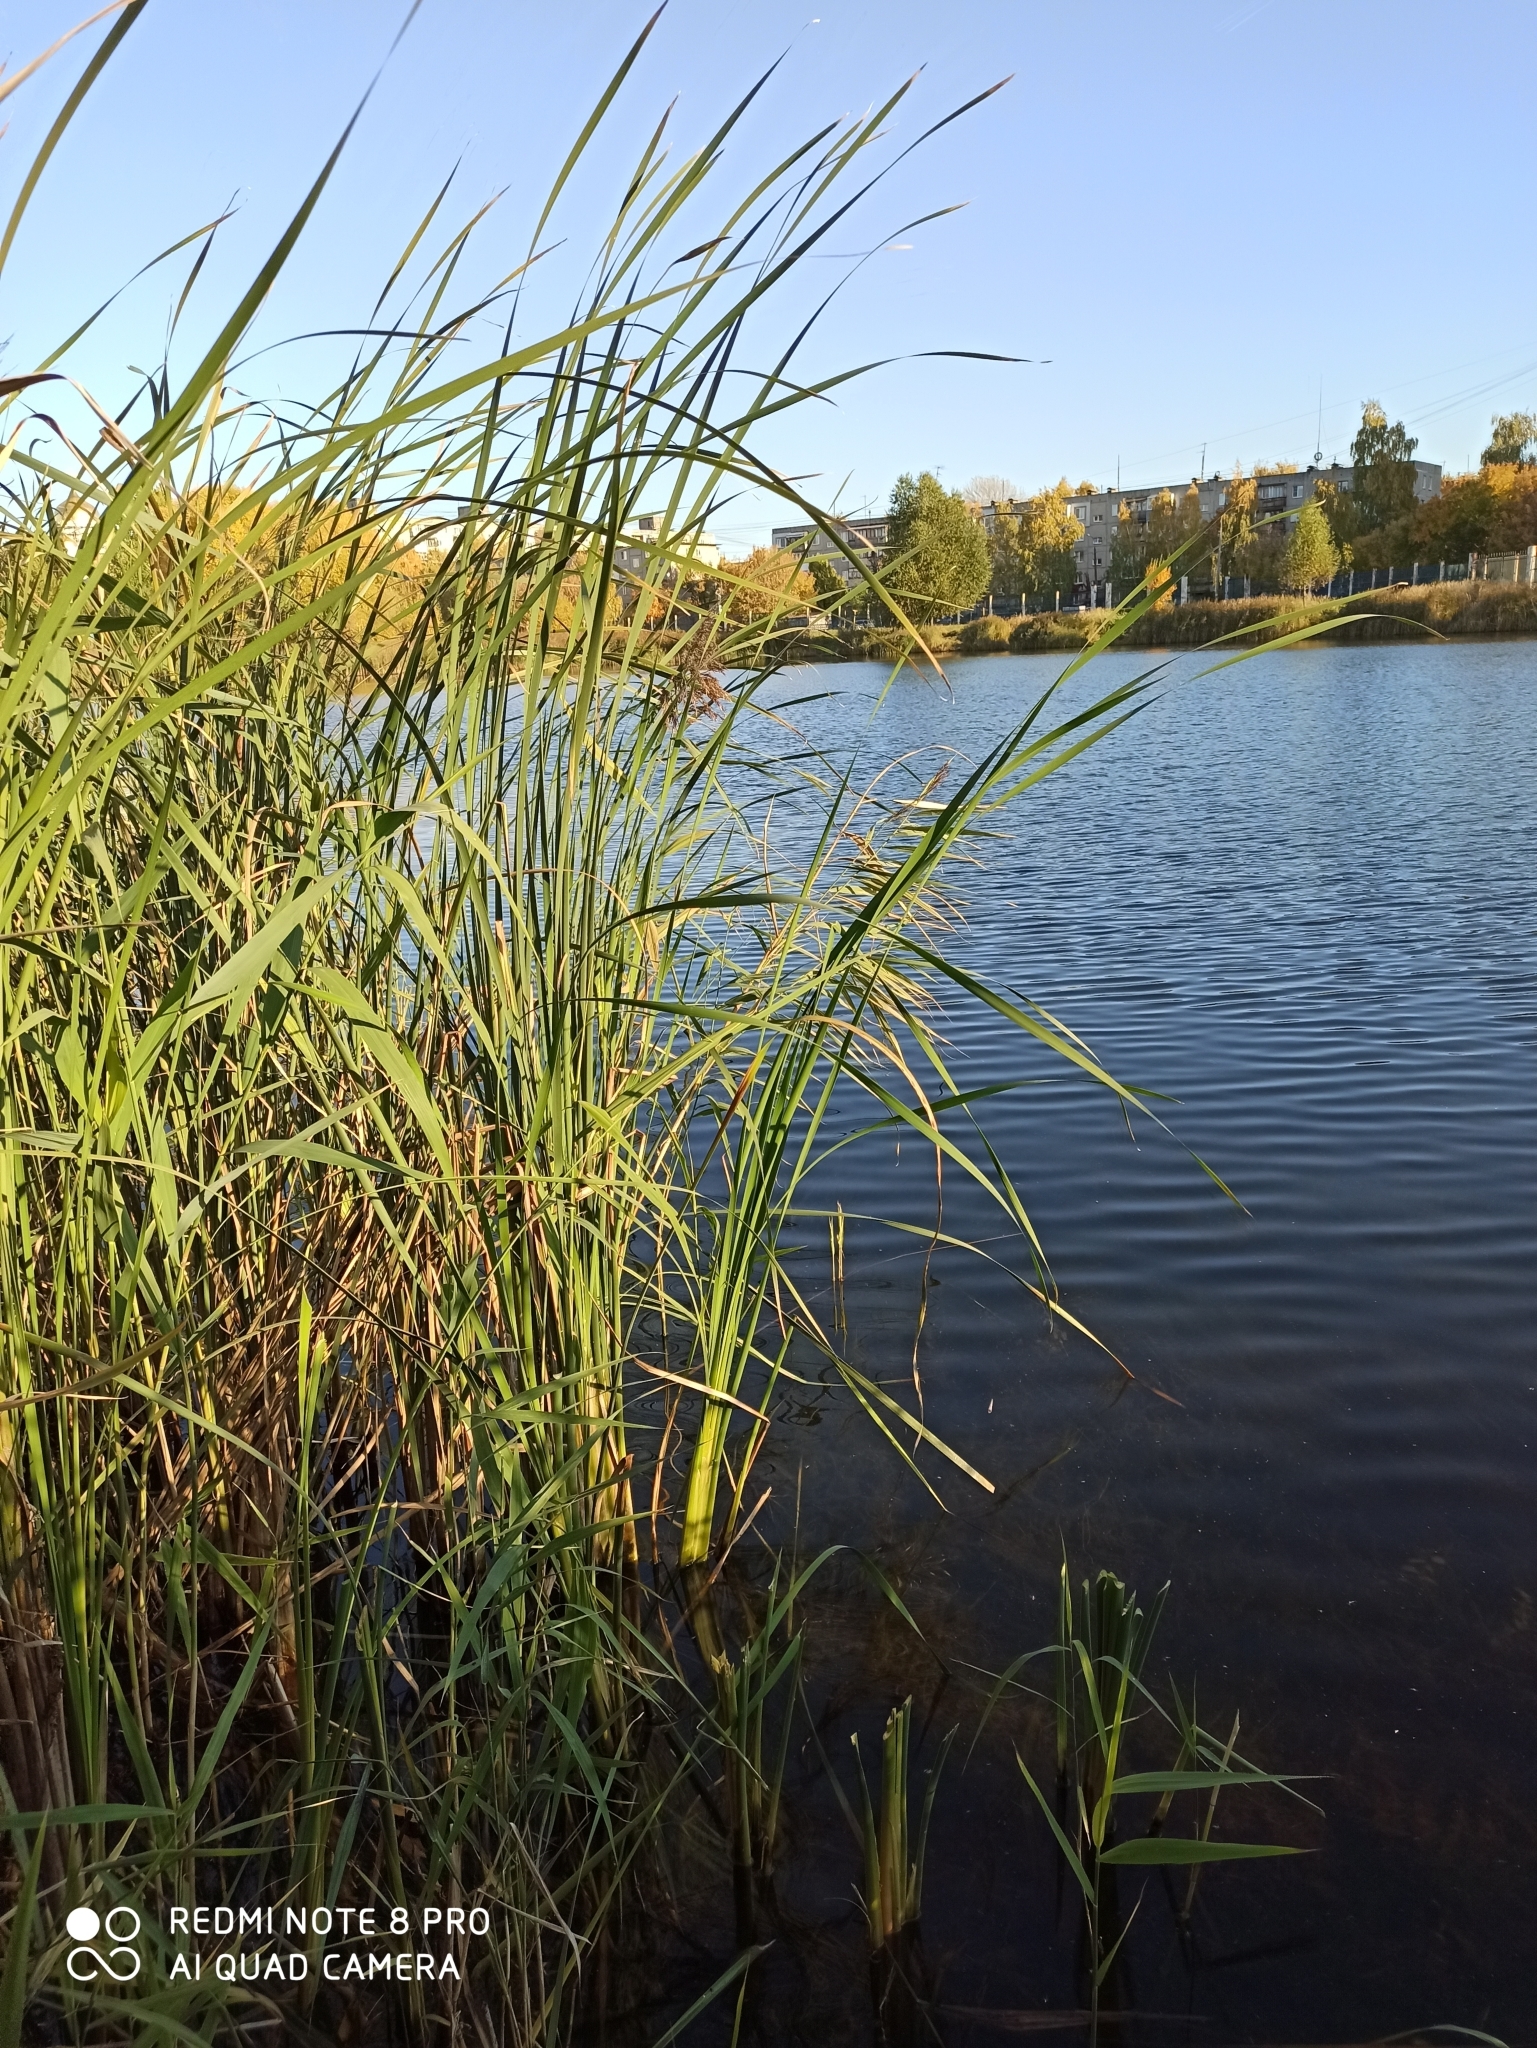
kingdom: Plantae
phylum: Tracheophyta
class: Liliopsida
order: Poales
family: Typhaceae
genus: Typha
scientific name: Typha angustifolia
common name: Lesser bulrush
